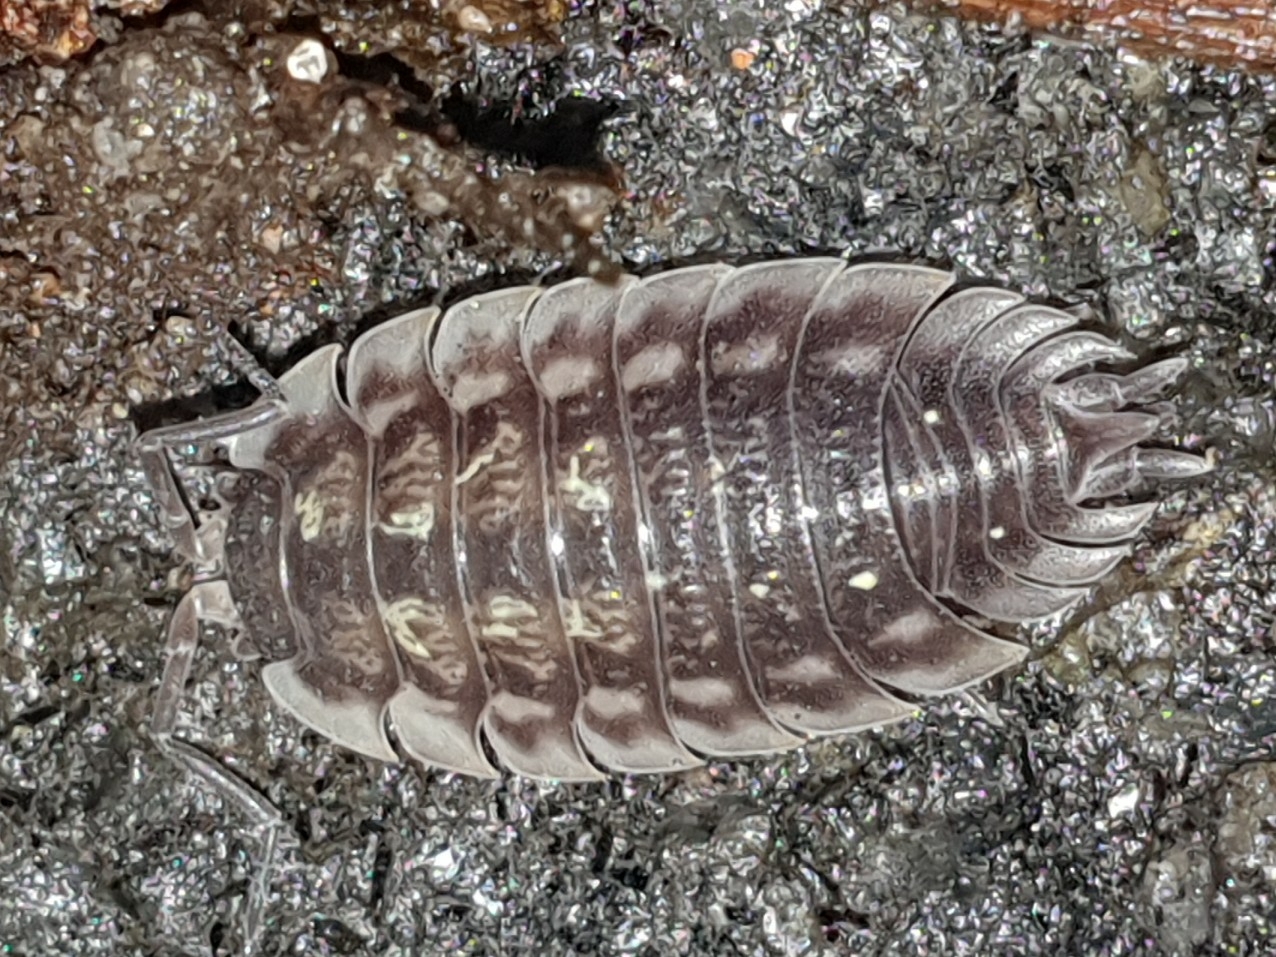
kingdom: Animalia
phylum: Arthropoda
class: Malacostraca
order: Isopoda
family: Oniscidae
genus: Oniscus
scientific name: Oniscus asellus
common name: Common shiny woodlouse
